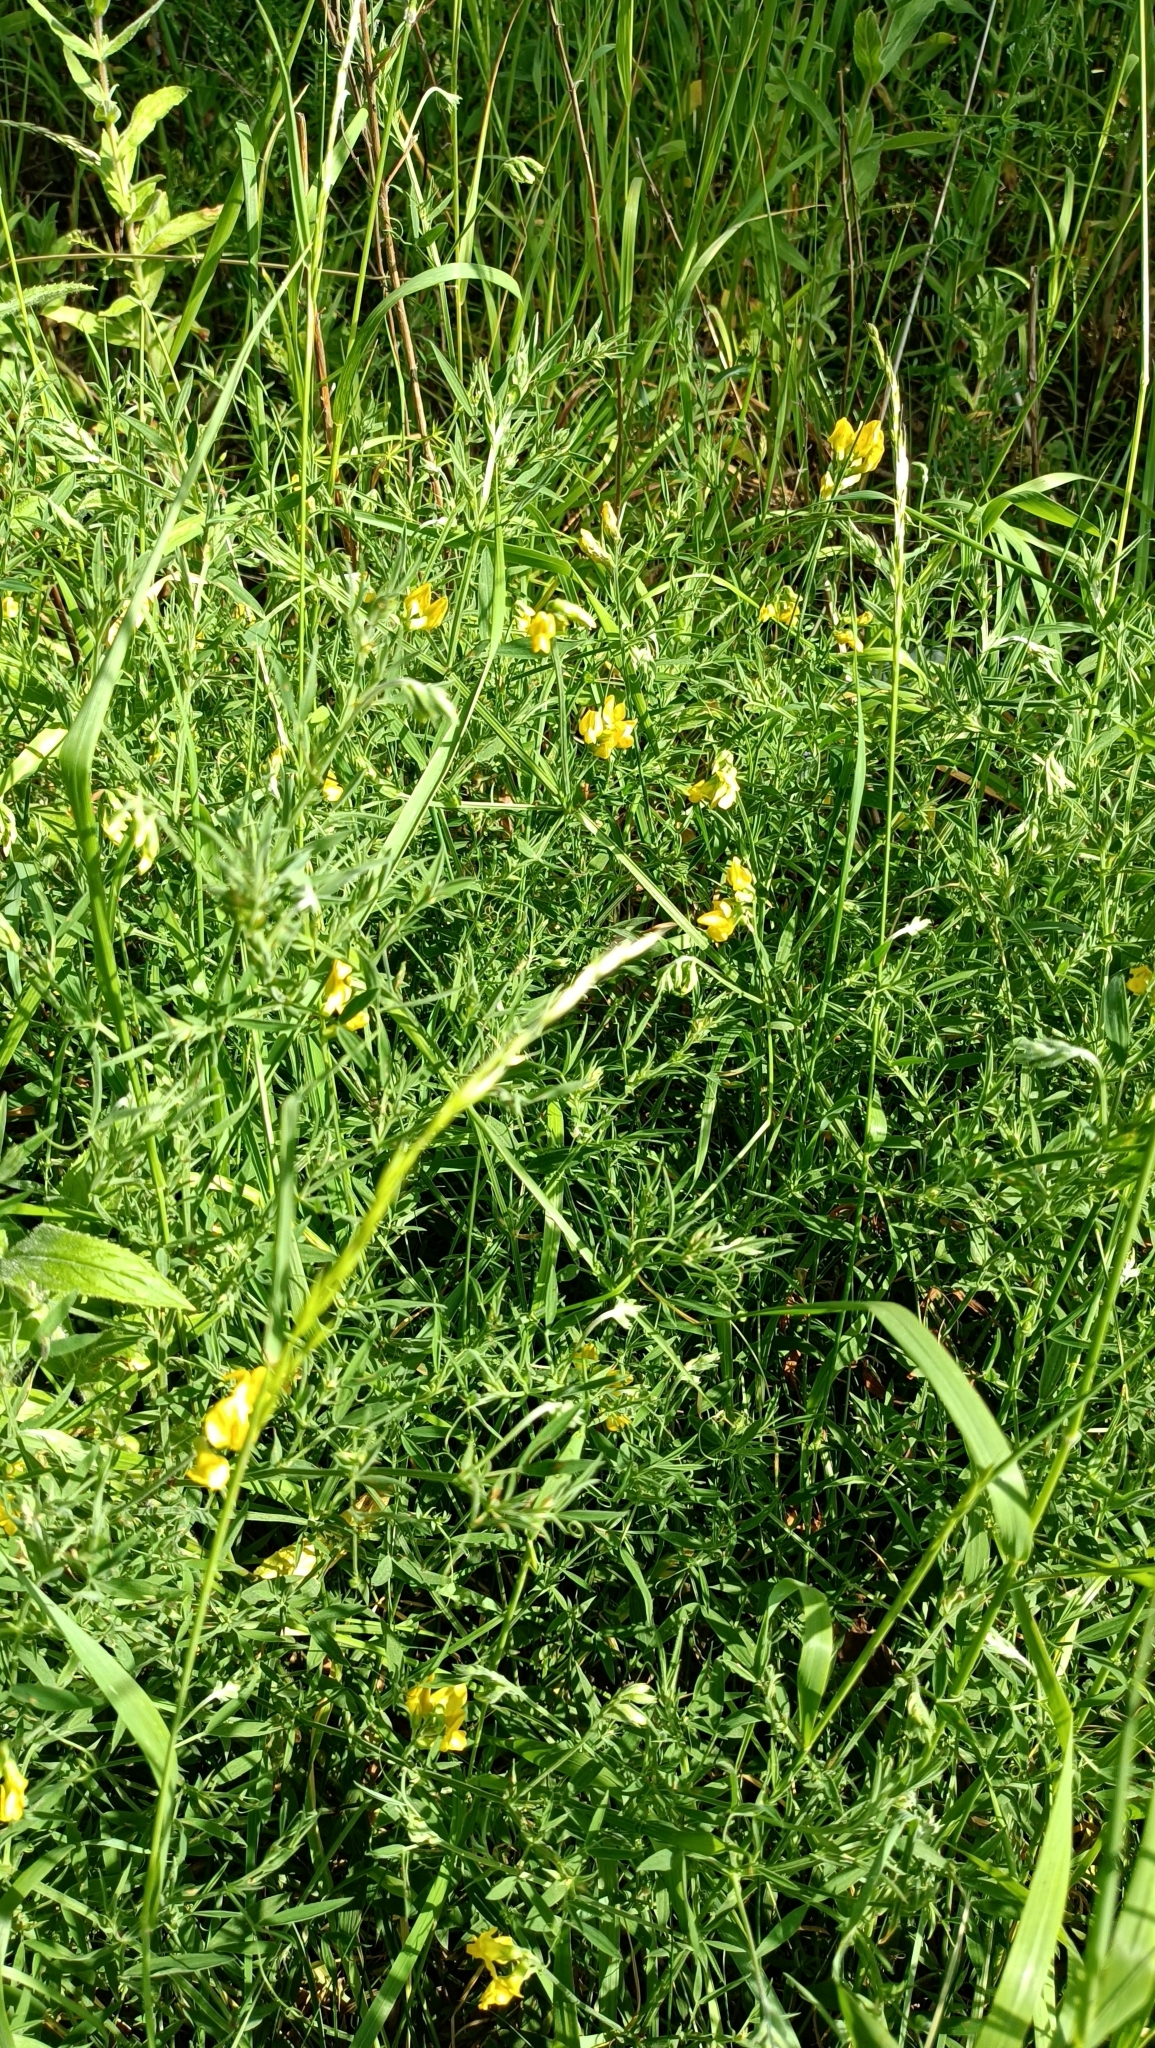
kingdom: Plantae
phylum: Tracheophyta
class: Magnoliopsida
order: Fabales
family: Fabaceae
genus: Lathyrus
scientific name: Lathyrus pratensis
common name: Meadow vetchling
